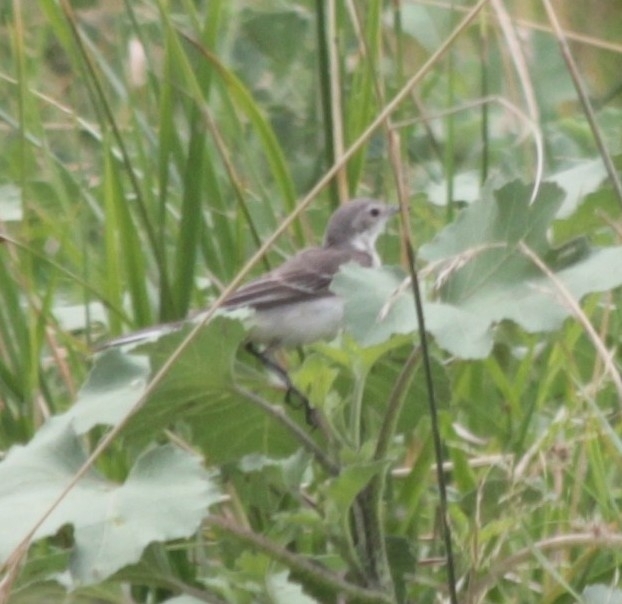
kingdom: Animalia
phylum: Chordata
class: Aves
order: Passeriformes
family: Motacillidae
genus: Motacilla
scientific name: Motacilla flava
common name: Western yellow wagtail
